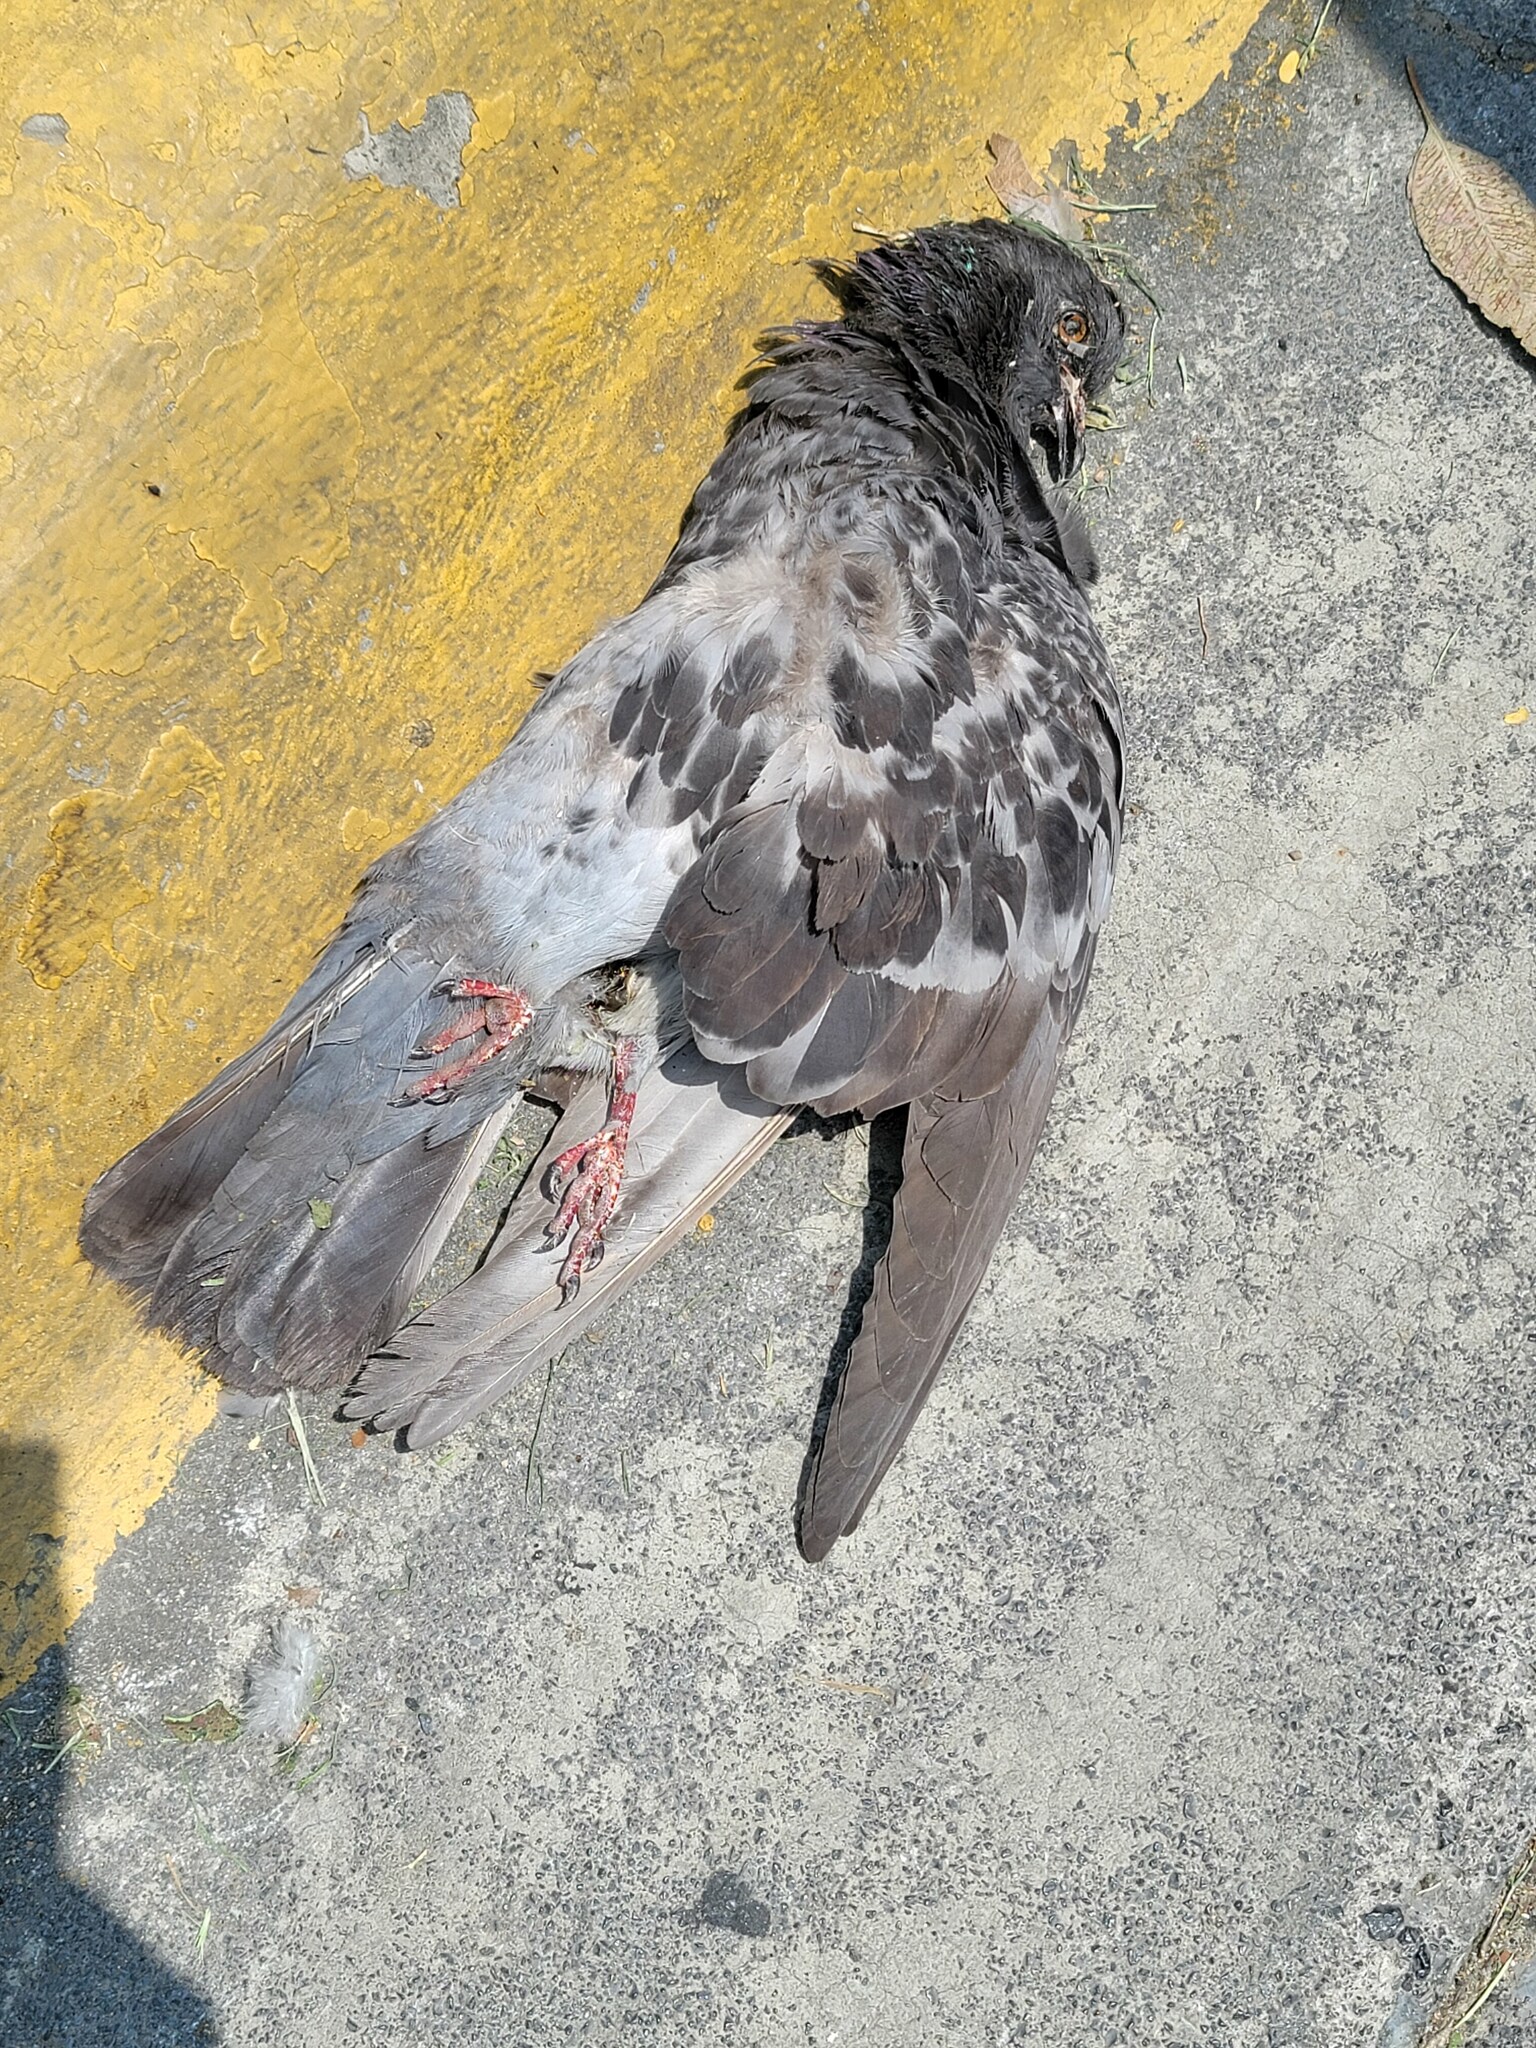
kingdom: Animalia
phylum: Chordata
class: Aves
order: Columbiformes
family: Columbidae
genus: Columba
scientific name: Columba livia
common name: Rock pigeon
